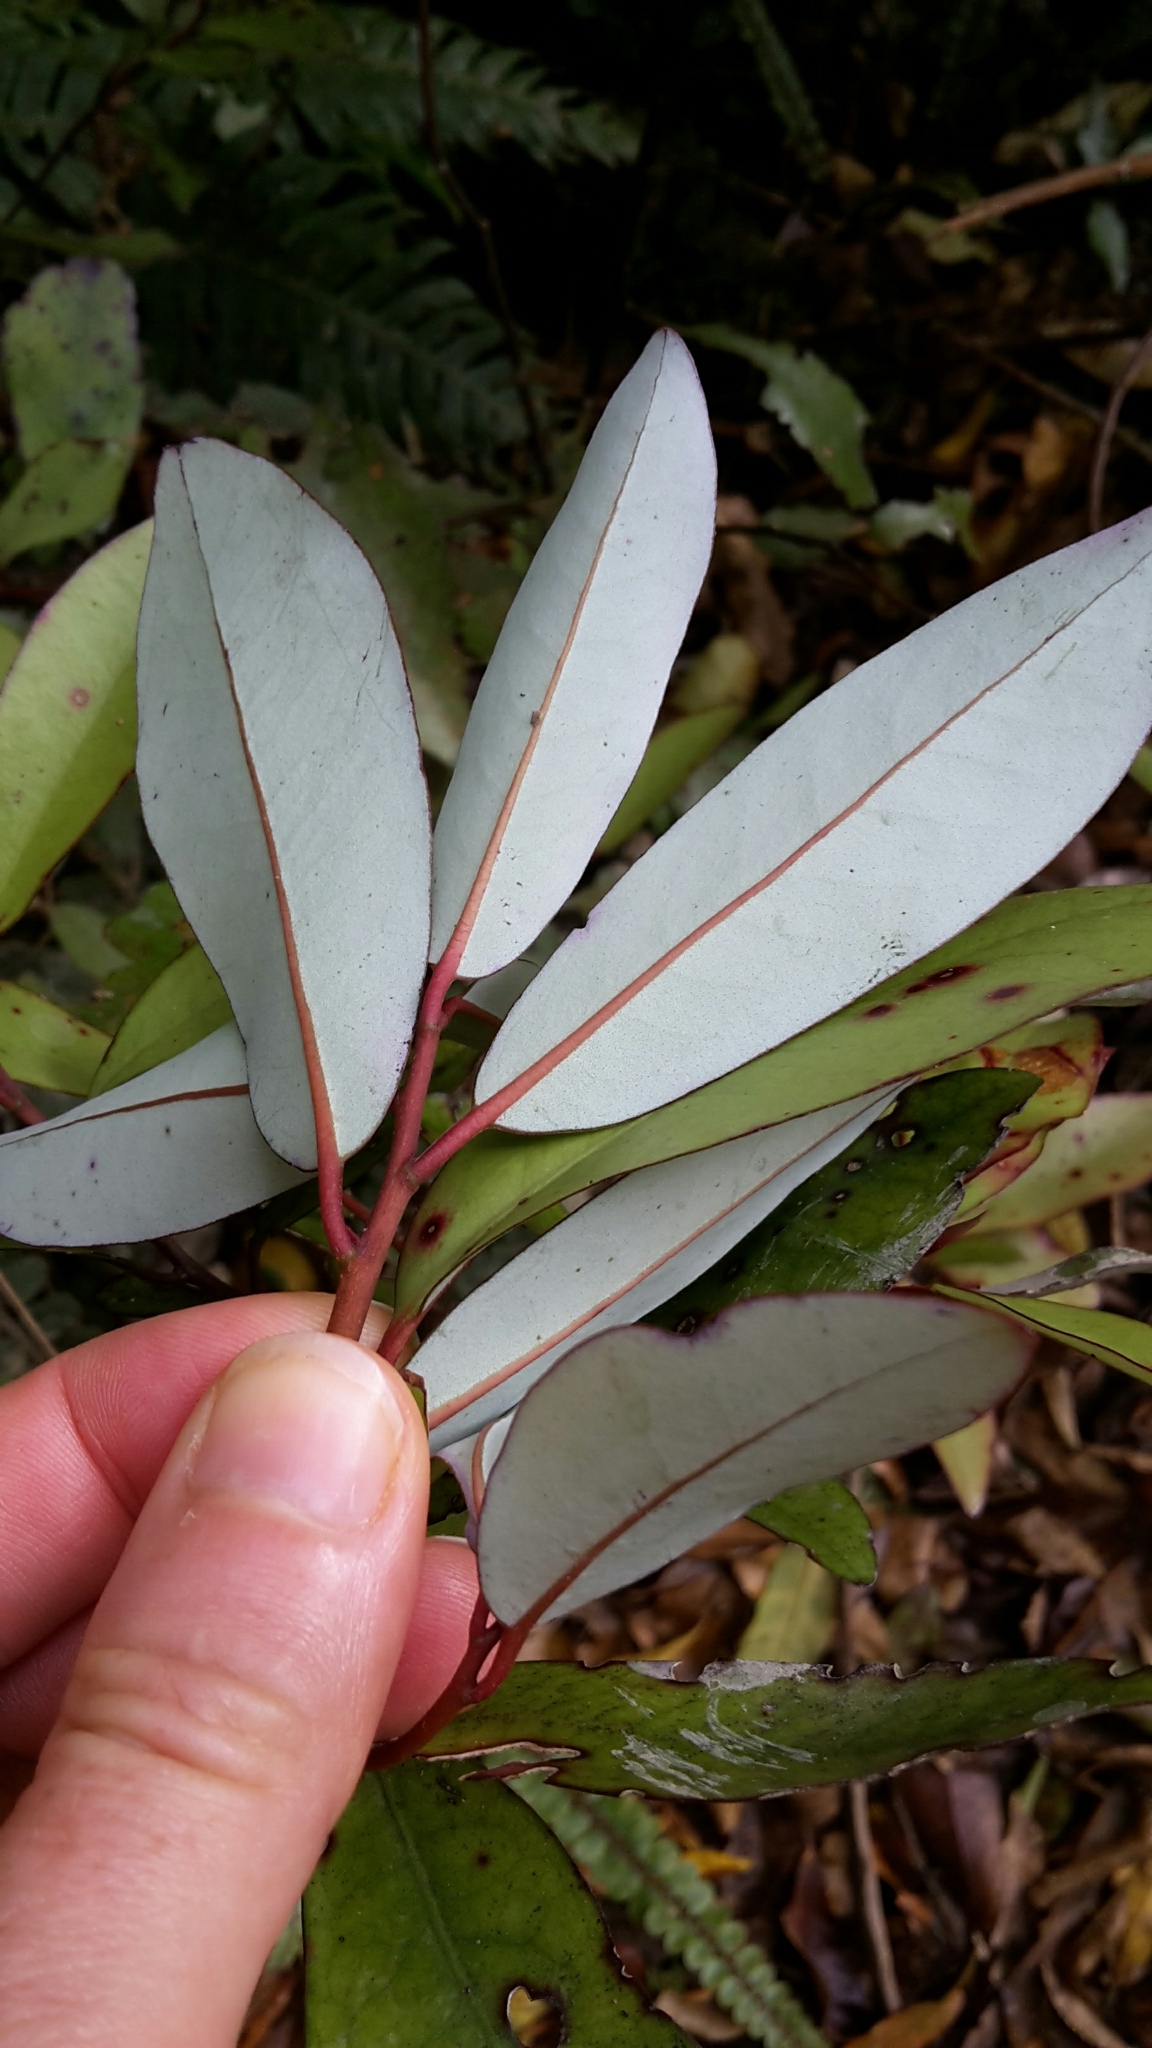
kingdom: Plantae
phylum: Tracheophyta
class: Magnoliopsida
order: Canellales
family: Winteraceae
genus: Pseudowintera
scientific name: Pseudowintera colorata
